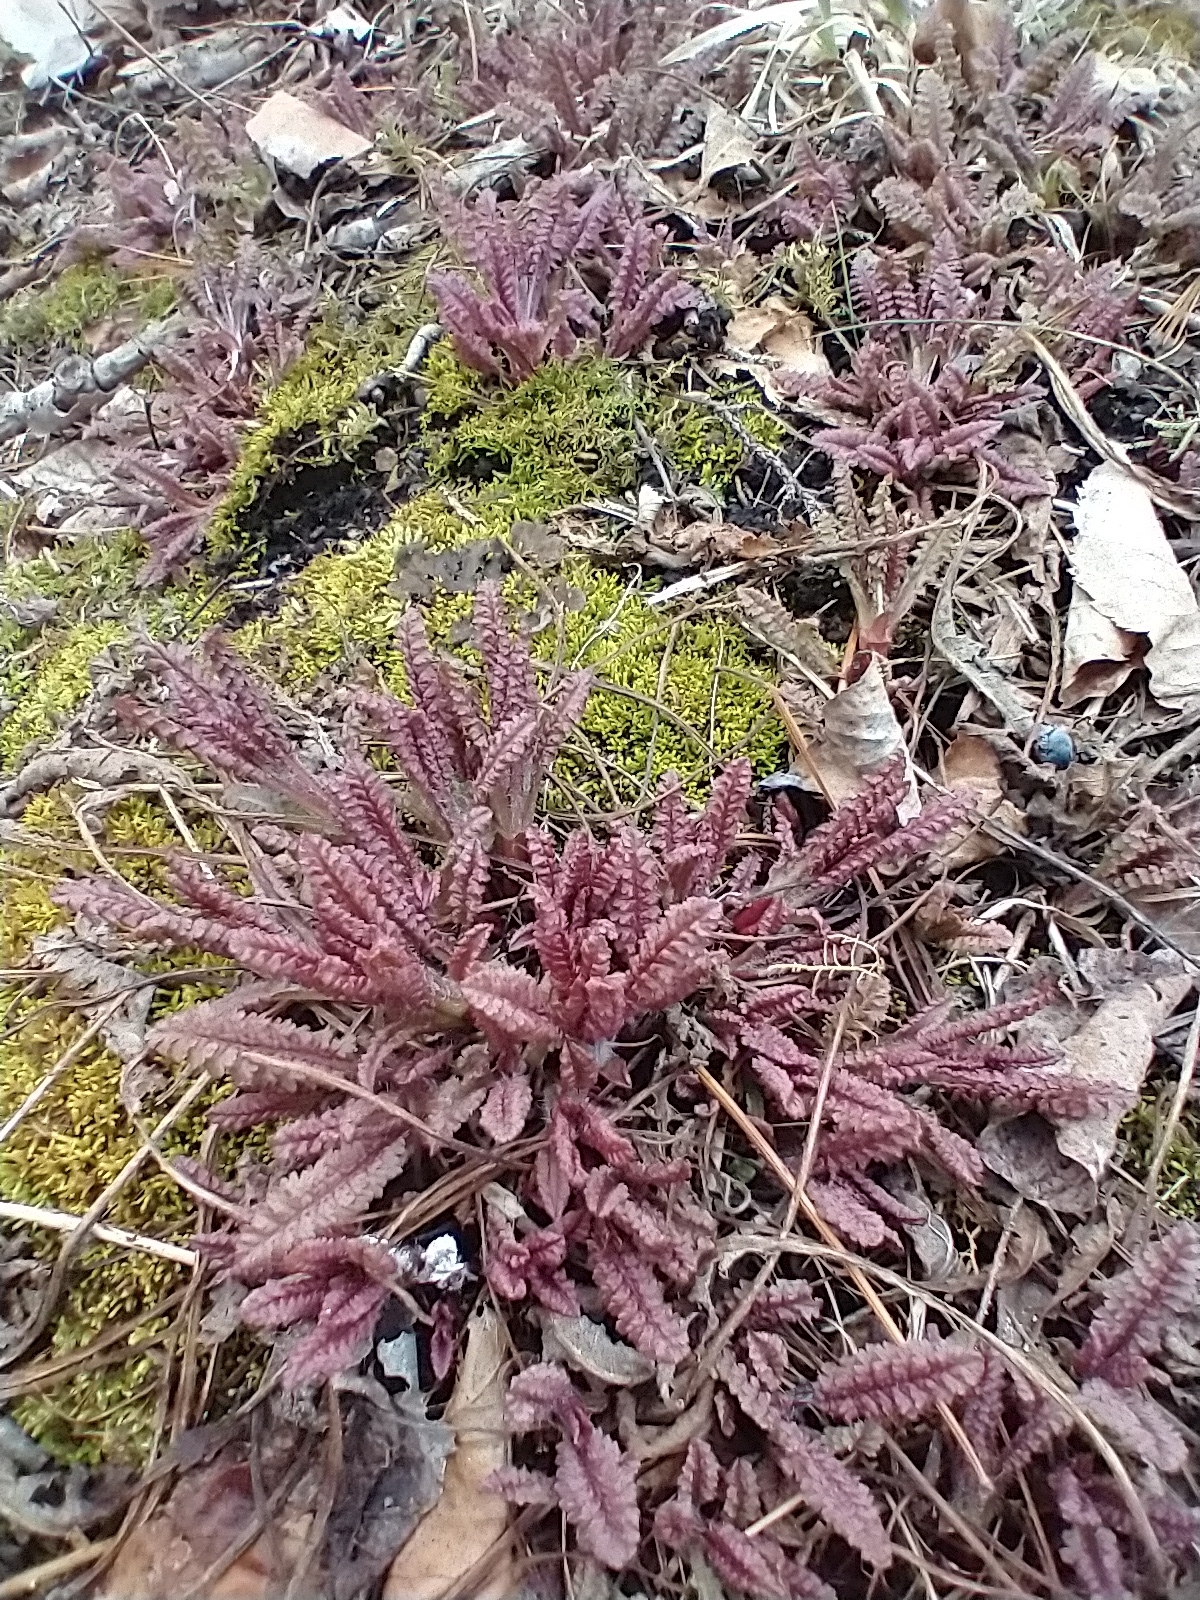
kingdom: Plantae
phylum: Tracheophyta
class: Magnoliopsida
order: Lamiales
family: Orobanchaceae
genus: Pedicularis
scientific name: Pedicularis canadensis
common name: Early lousewort
